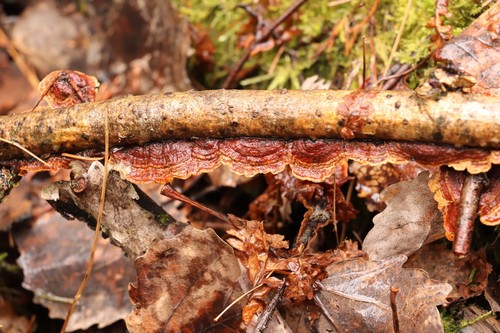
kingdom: Fungi
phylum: Basidiomycota
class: Agaricomycetes
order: Hymenochaetales
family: Hymenochaetaceae
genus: Hydnoporia
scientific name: Hydnoporia tabacina
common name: Willow glue
